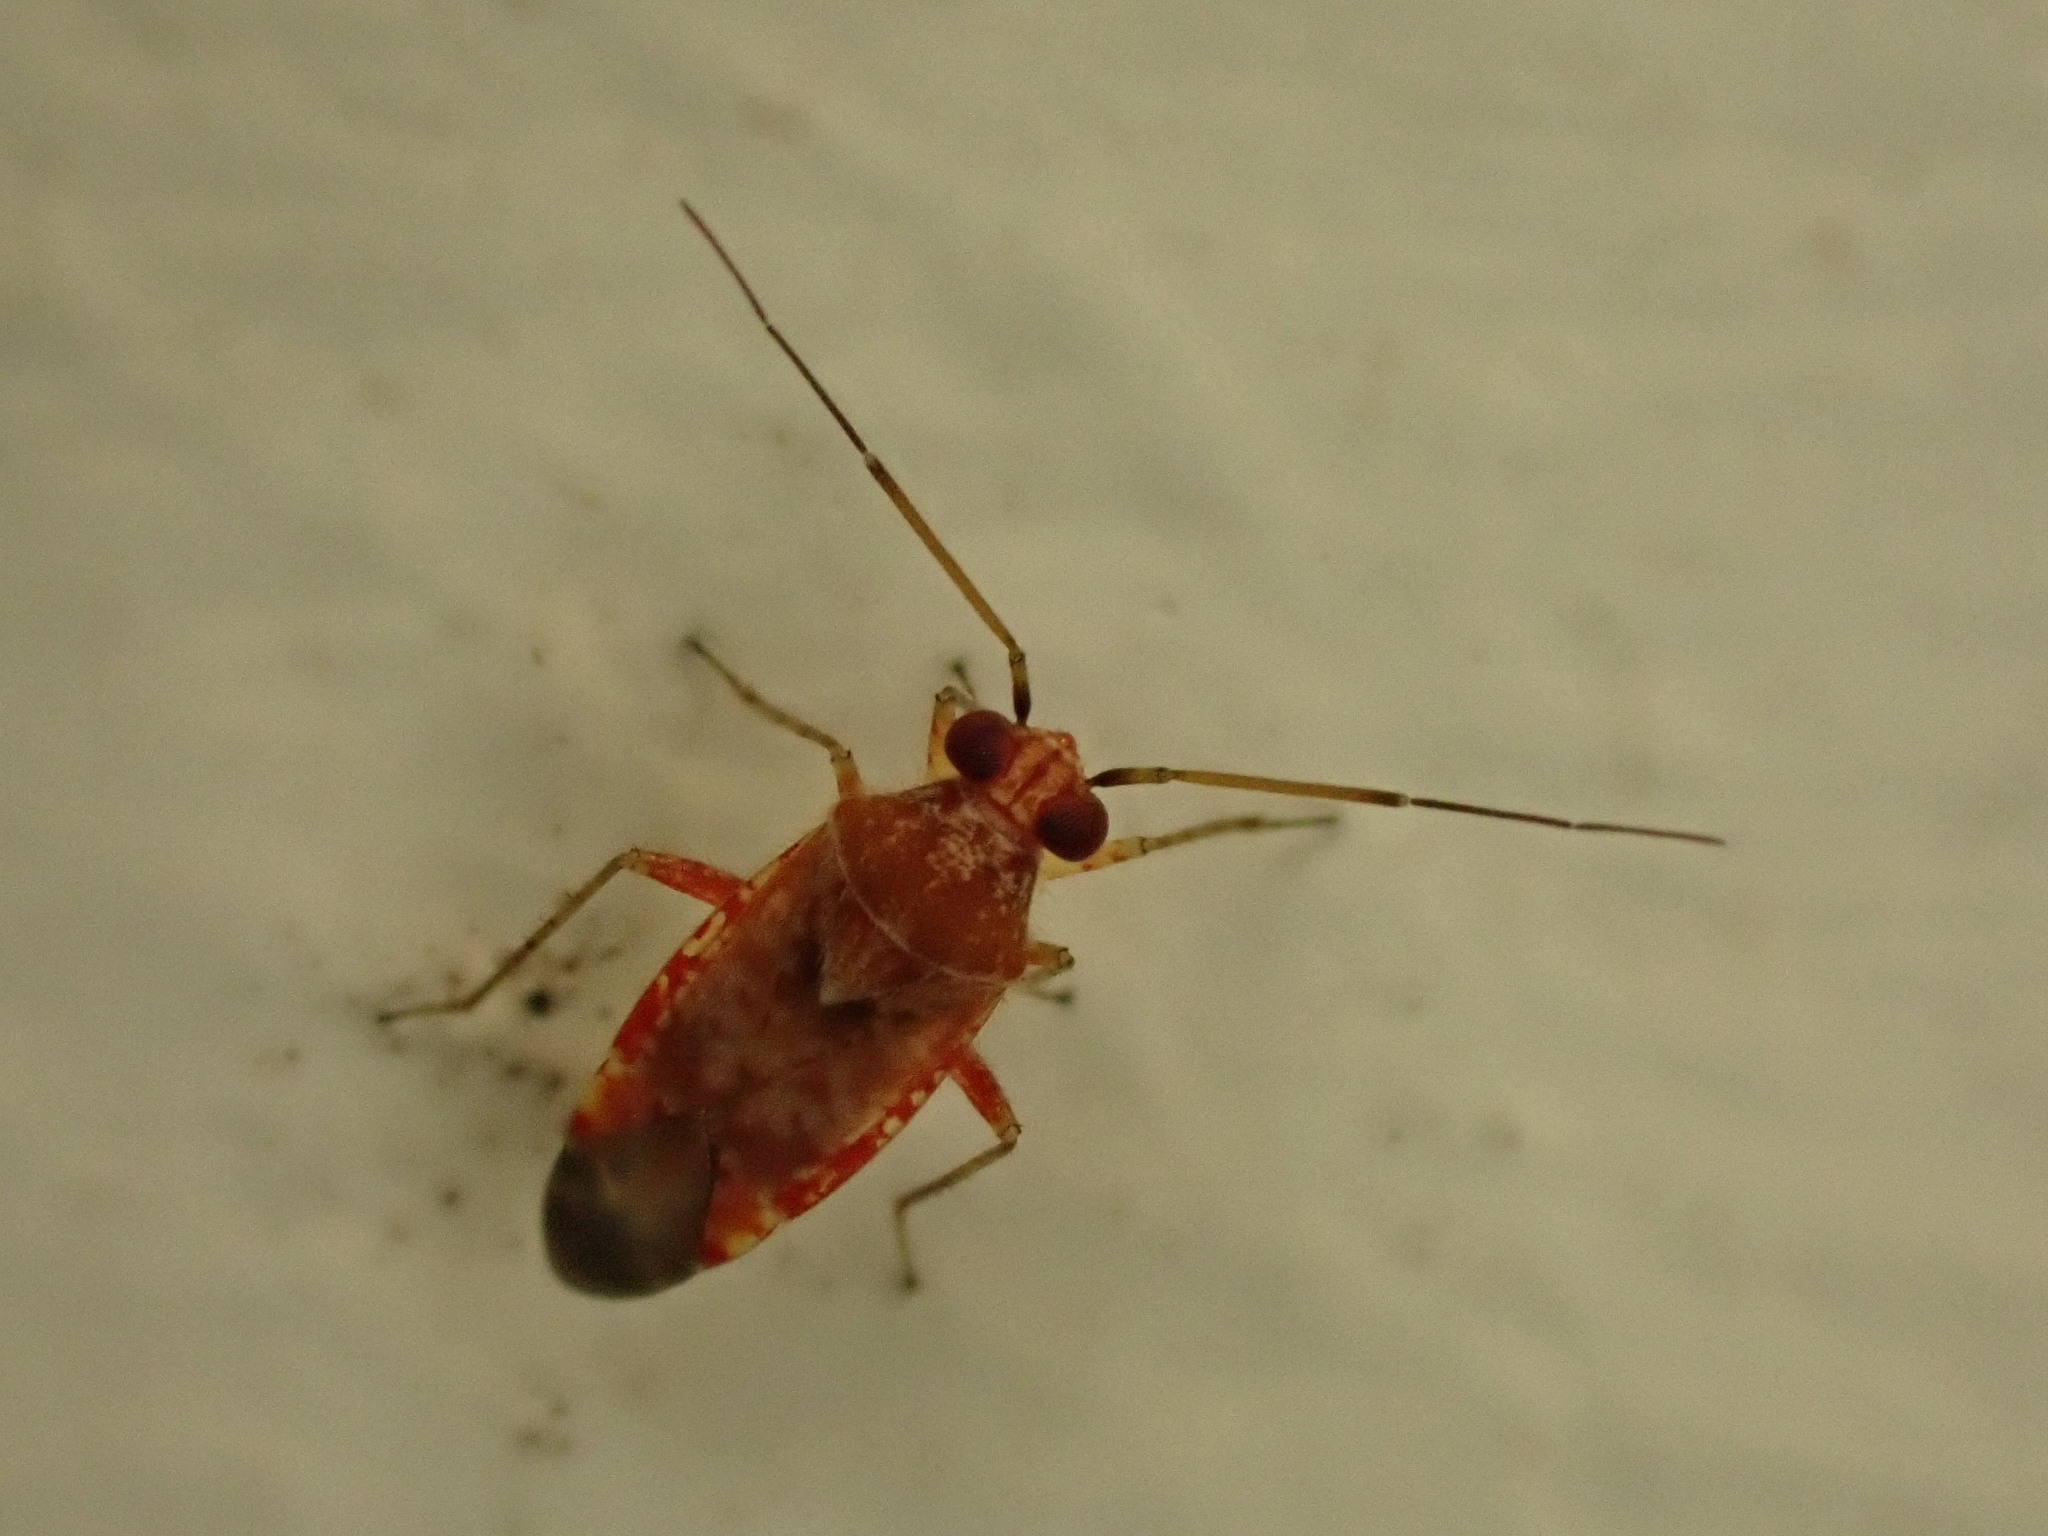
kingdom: Animalia
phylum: Arthropoda
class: Insecta
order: Hemiptera
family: Miridae
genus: Tinginotum
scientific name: Tinginotum minutum
